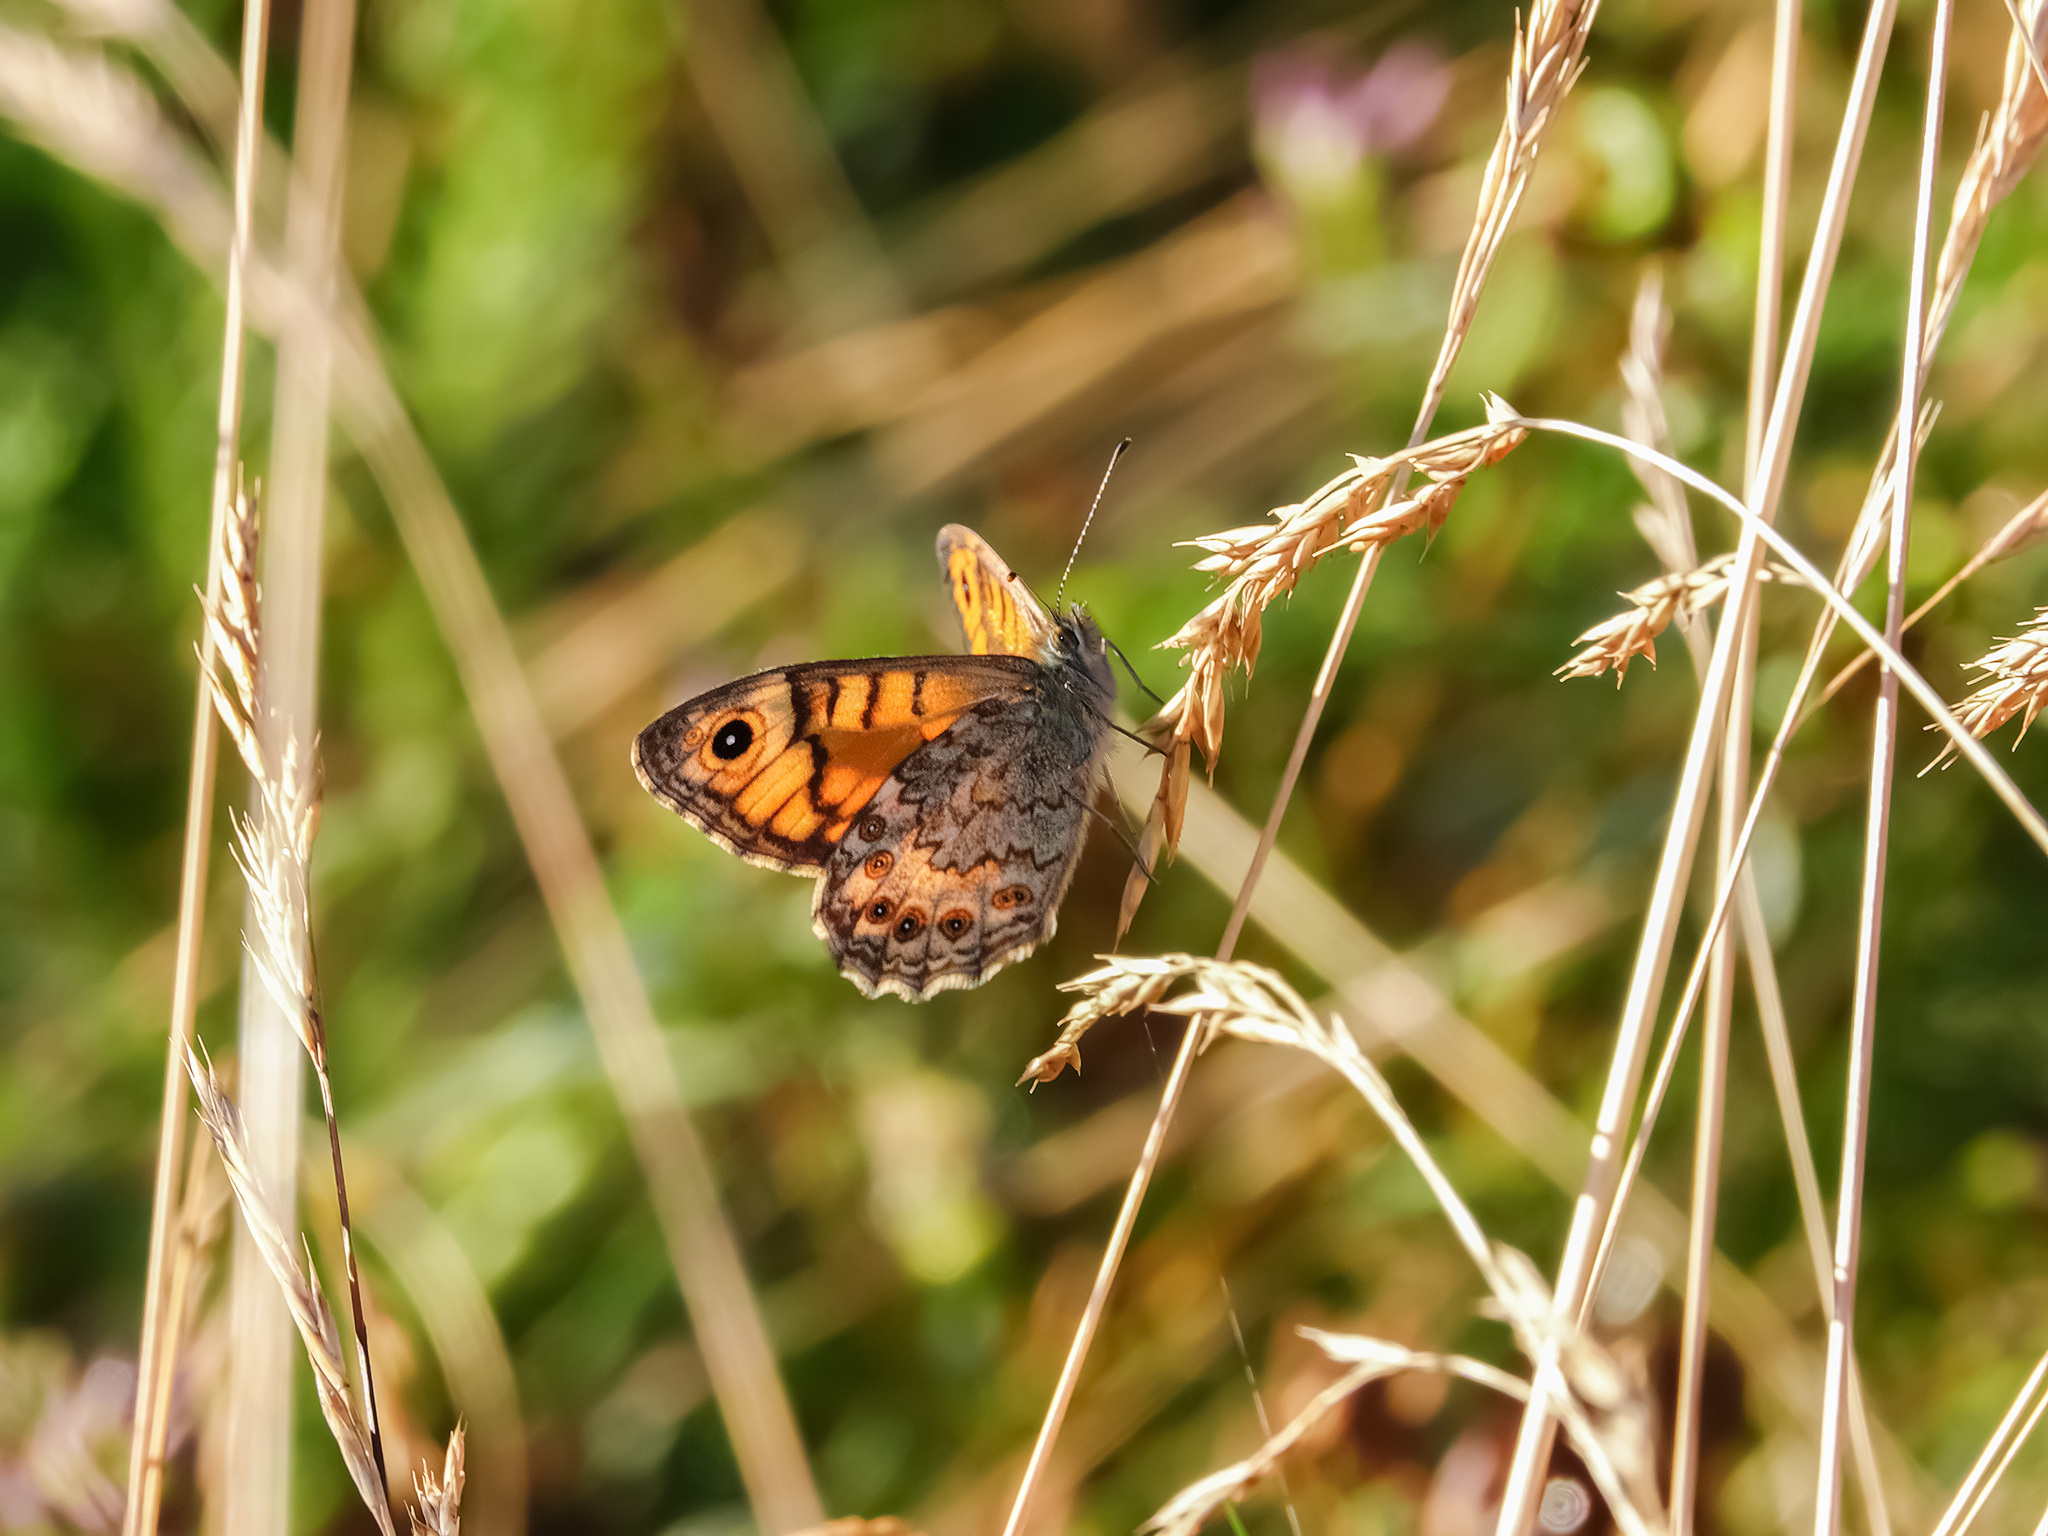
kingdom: Animalia
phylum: Arthropoda
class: Insecta
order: Lepidoptera
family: Nymphalidae
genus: Pararge
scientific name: Pararge Lasiommata megera
